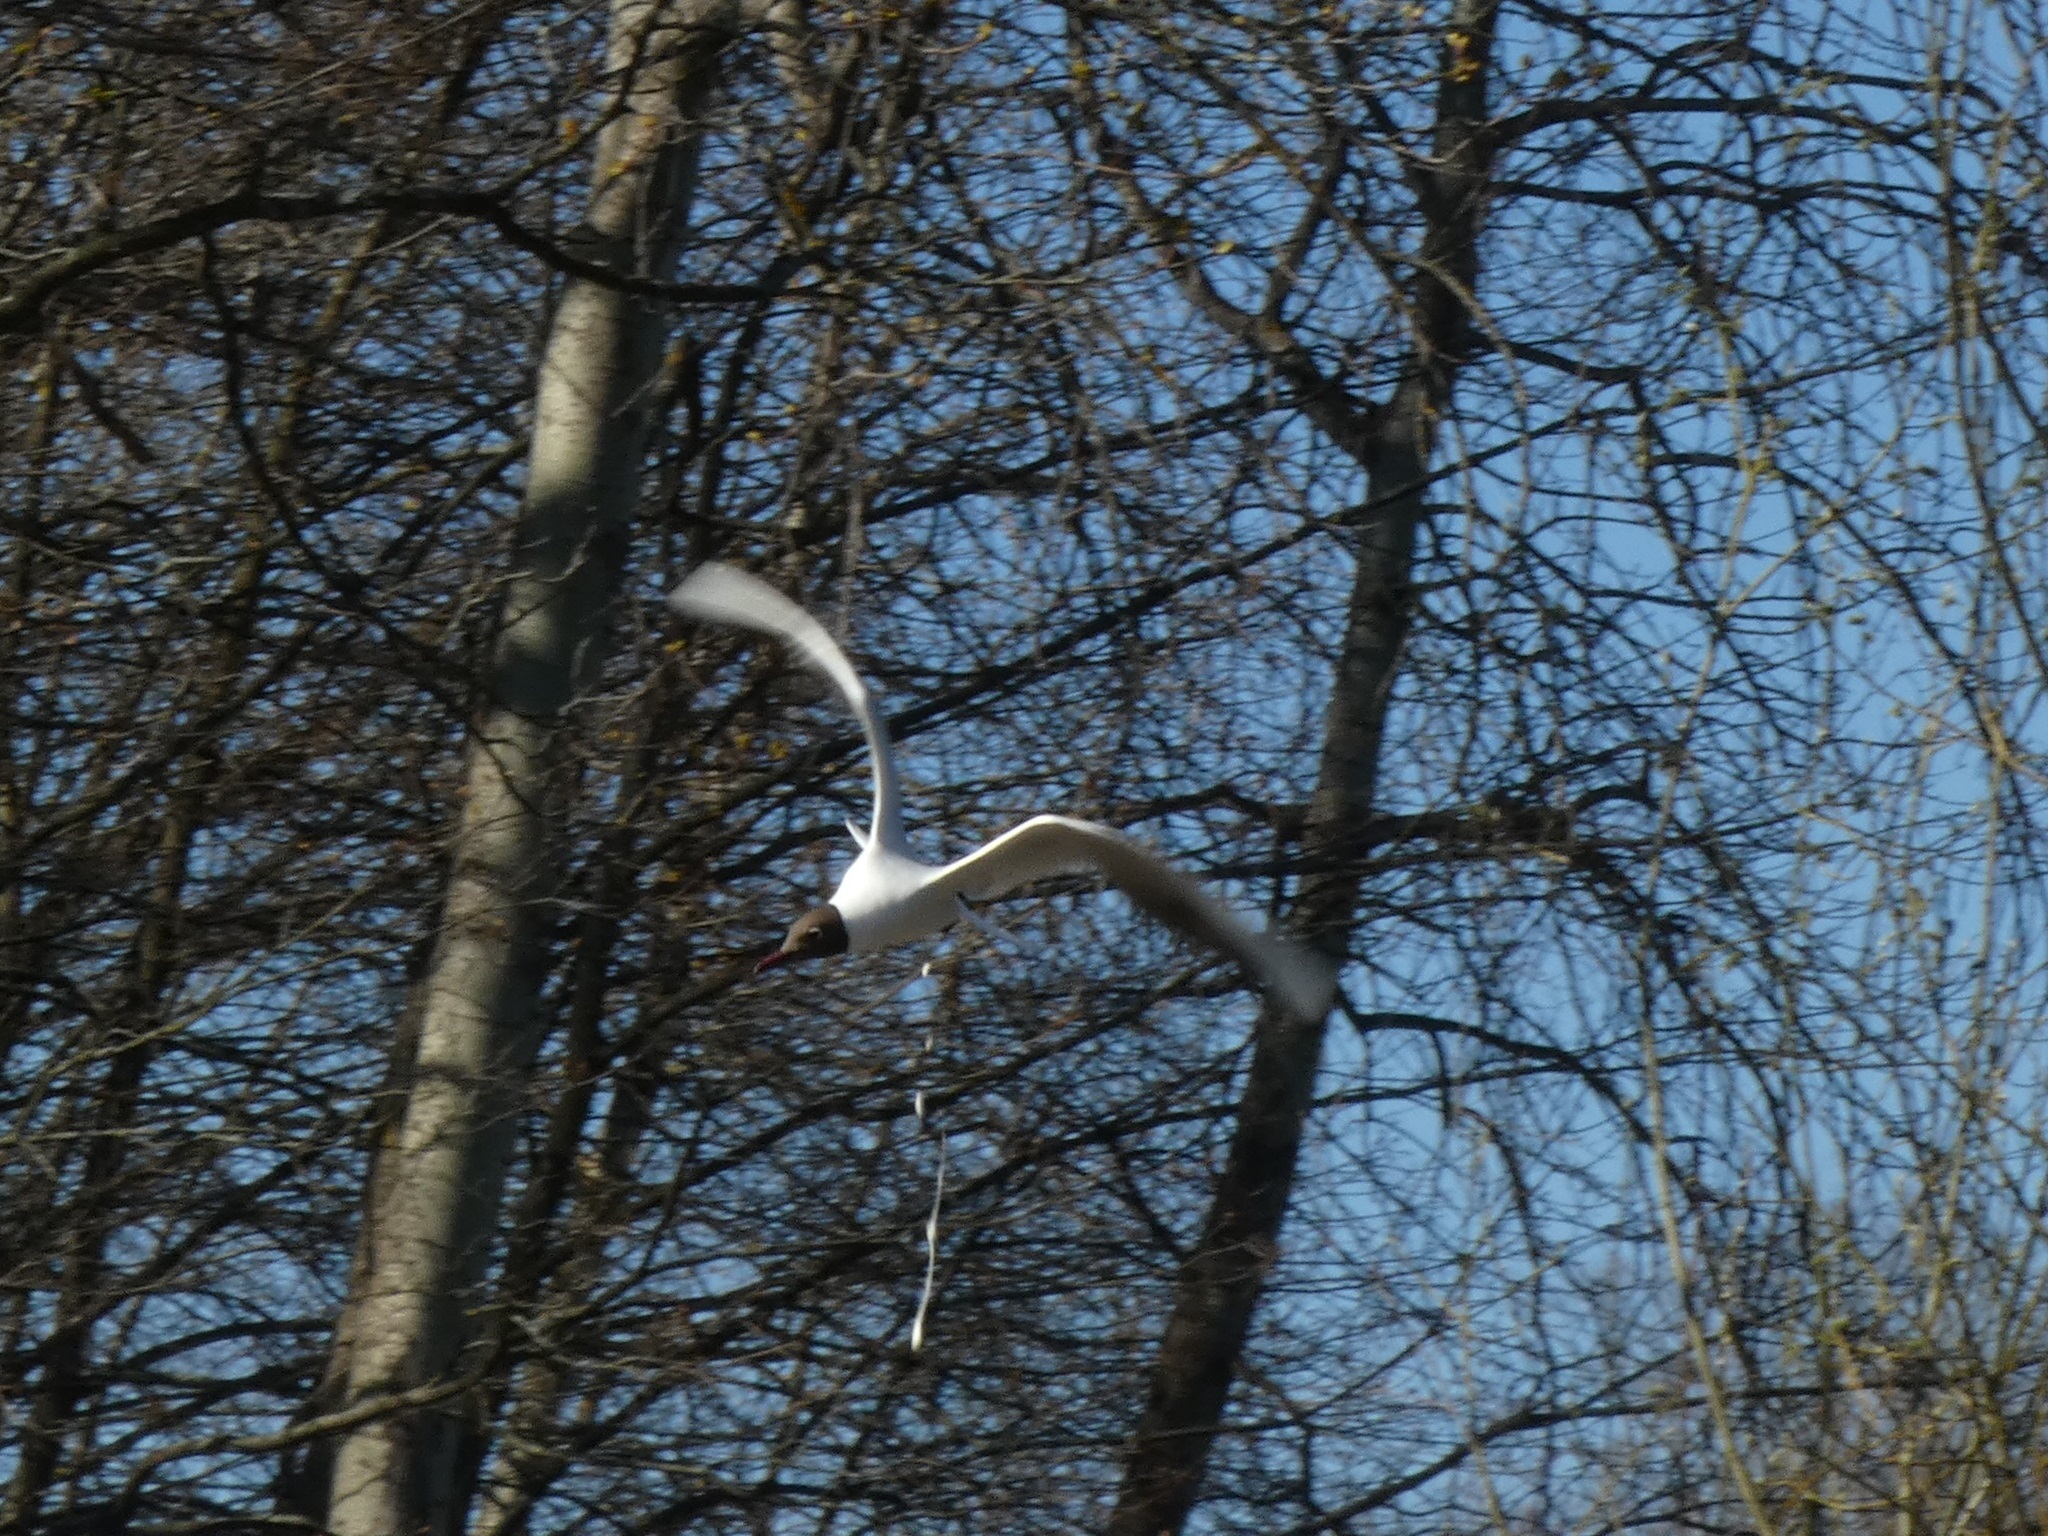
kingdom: Animalia
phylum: Chordata
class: Aves
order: Charadriiformes
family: Laridae
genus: Chroicocephalus
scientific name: Chroicocephalus ridibundus
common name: Black-headed gull
